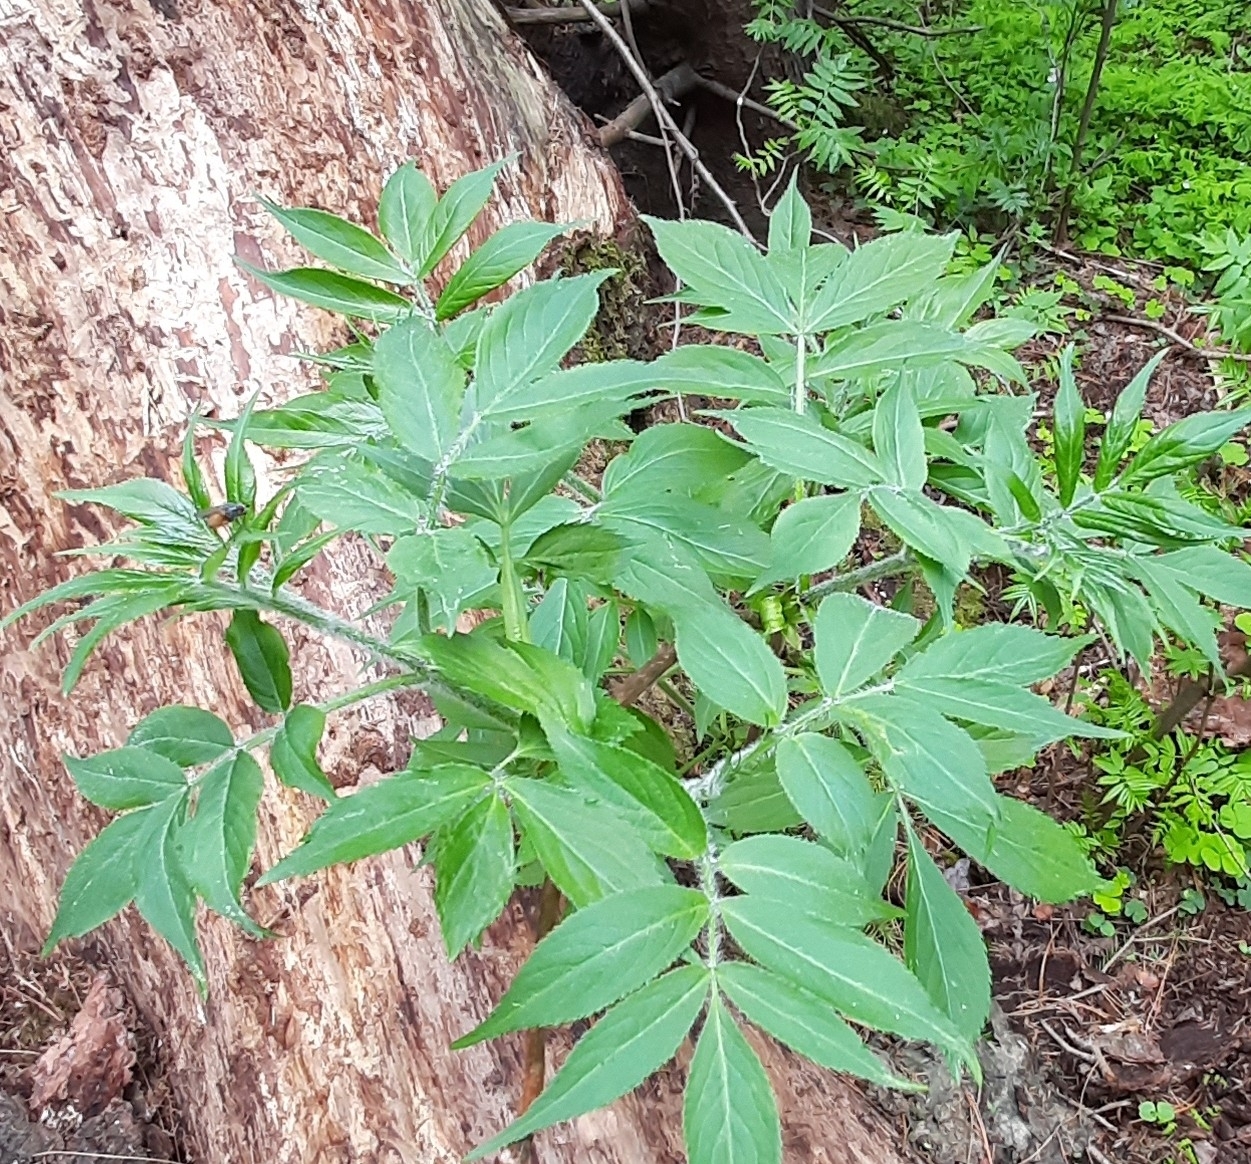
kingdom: Plantae
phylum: Tracheophyta
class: Magnoliopsida
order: Dipsacales
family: Viburnaceae
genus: Sambucus
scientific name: Sambucus sibirica
